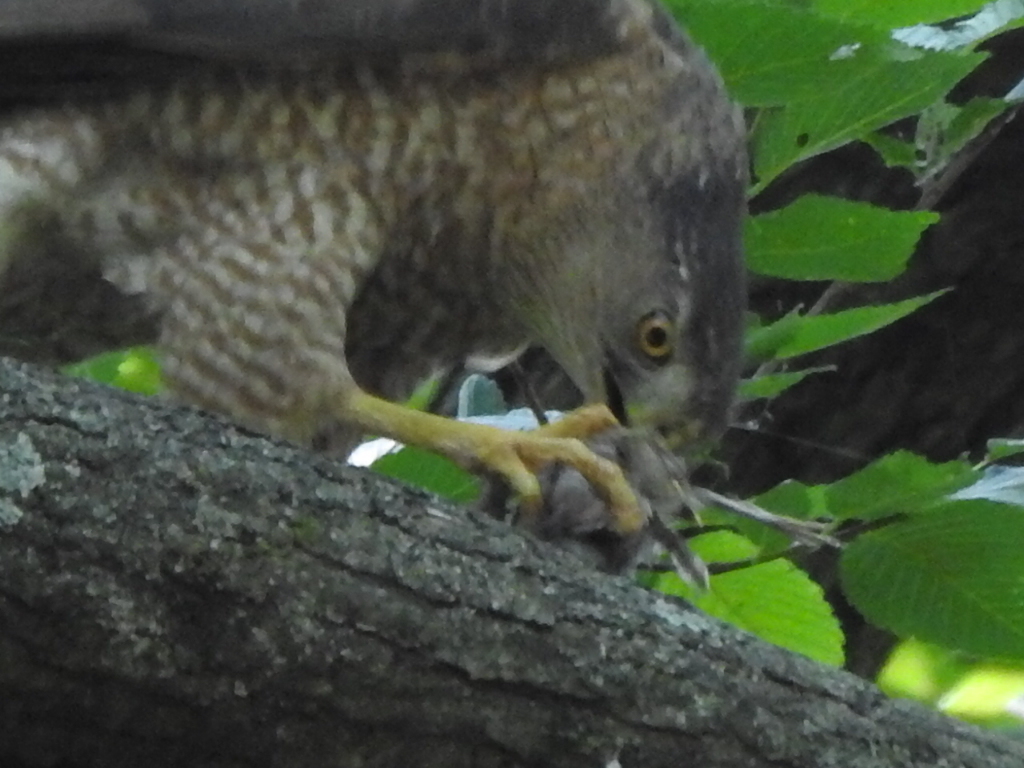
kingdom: Animalia
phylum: Chordata
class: Aves
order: Accipitriformes
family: Accipitridae
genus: Accipiter
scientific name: Accipiter cooperii
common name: Cooper's hawk
